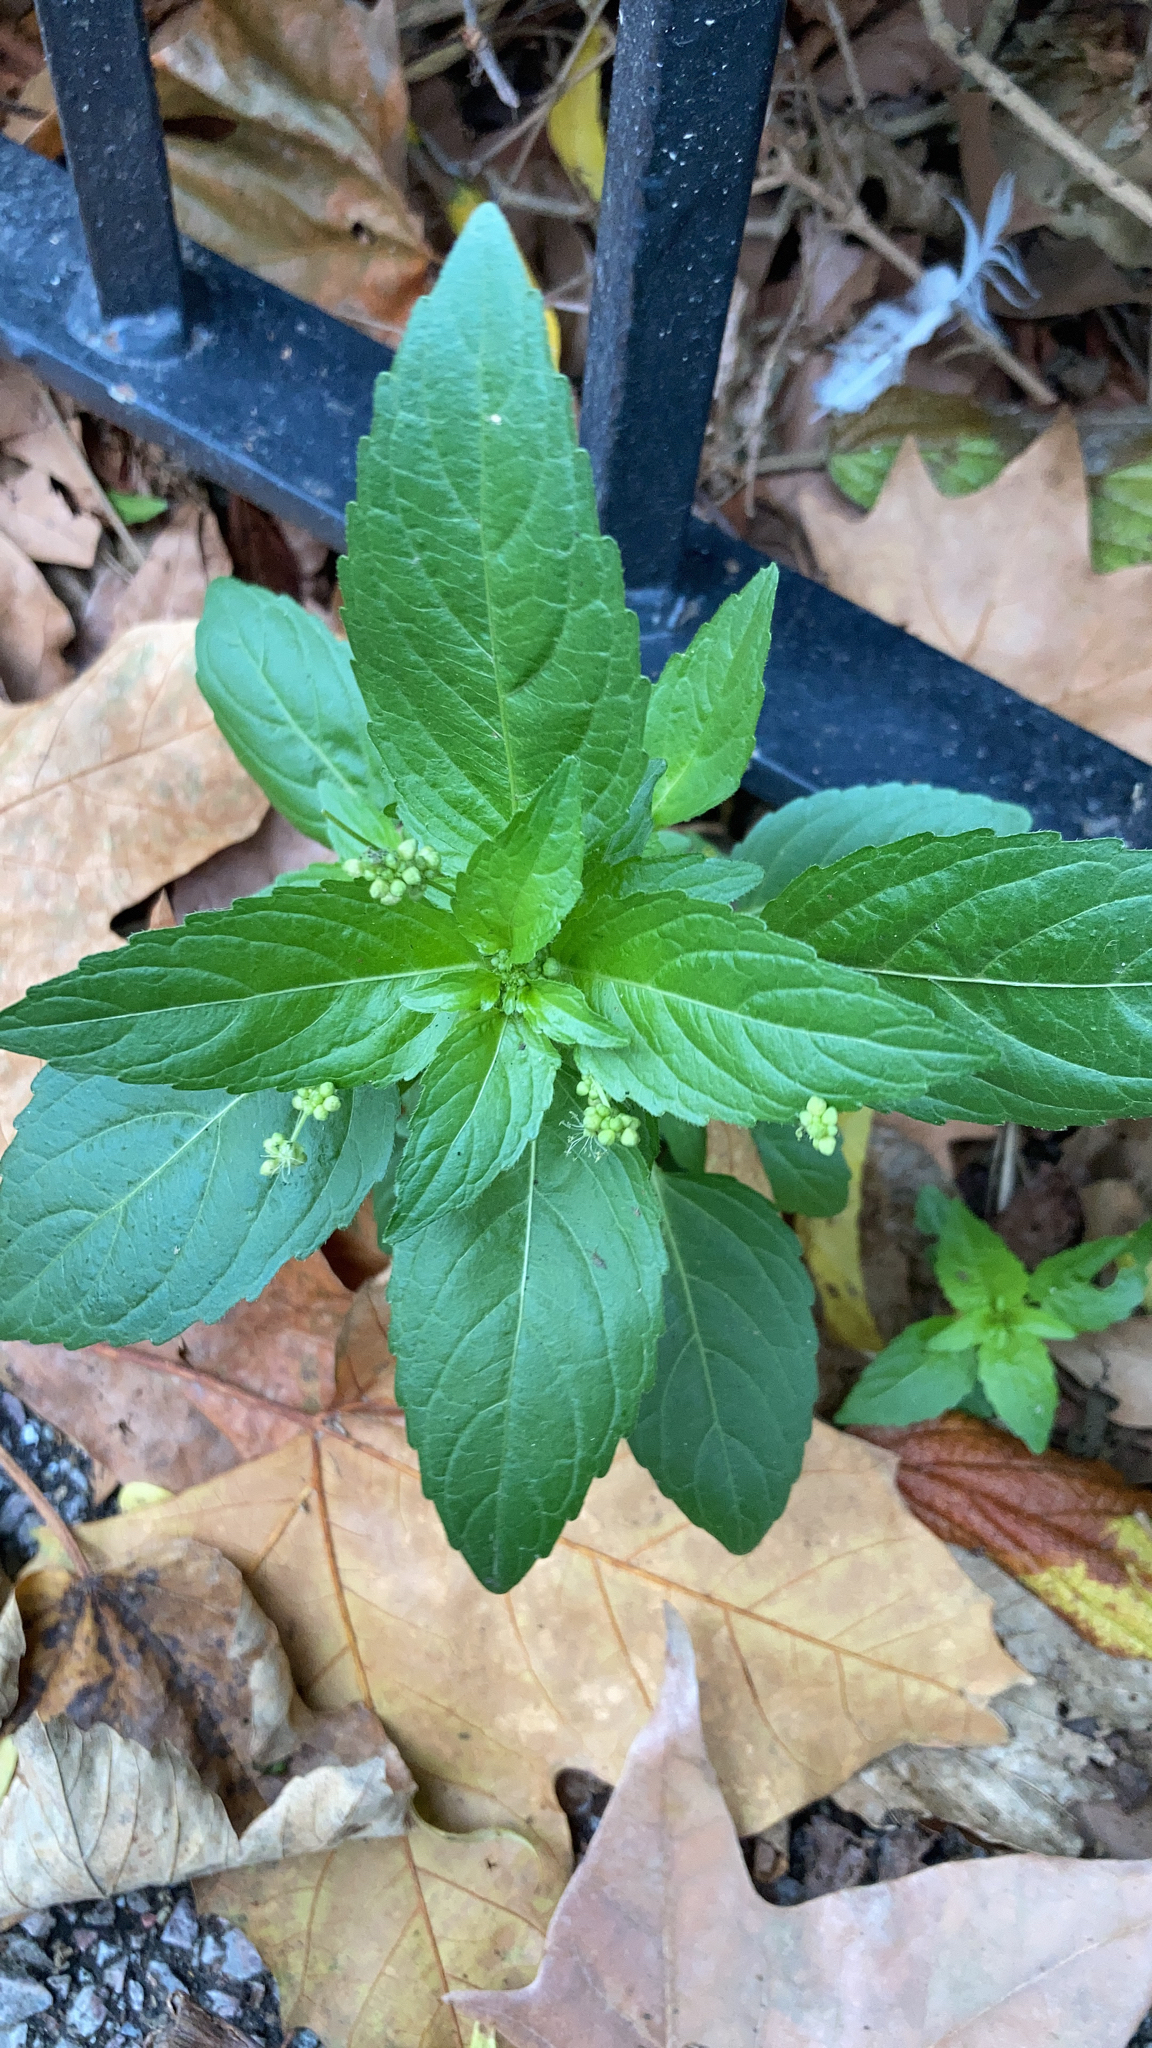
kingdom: Plantae
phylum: Tracheophyta
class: Magnoliopsida
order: Malpighiales
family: Euphorbiaceae
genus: Mercurialis
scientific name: Mercurialis annua
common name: Annual mercury
